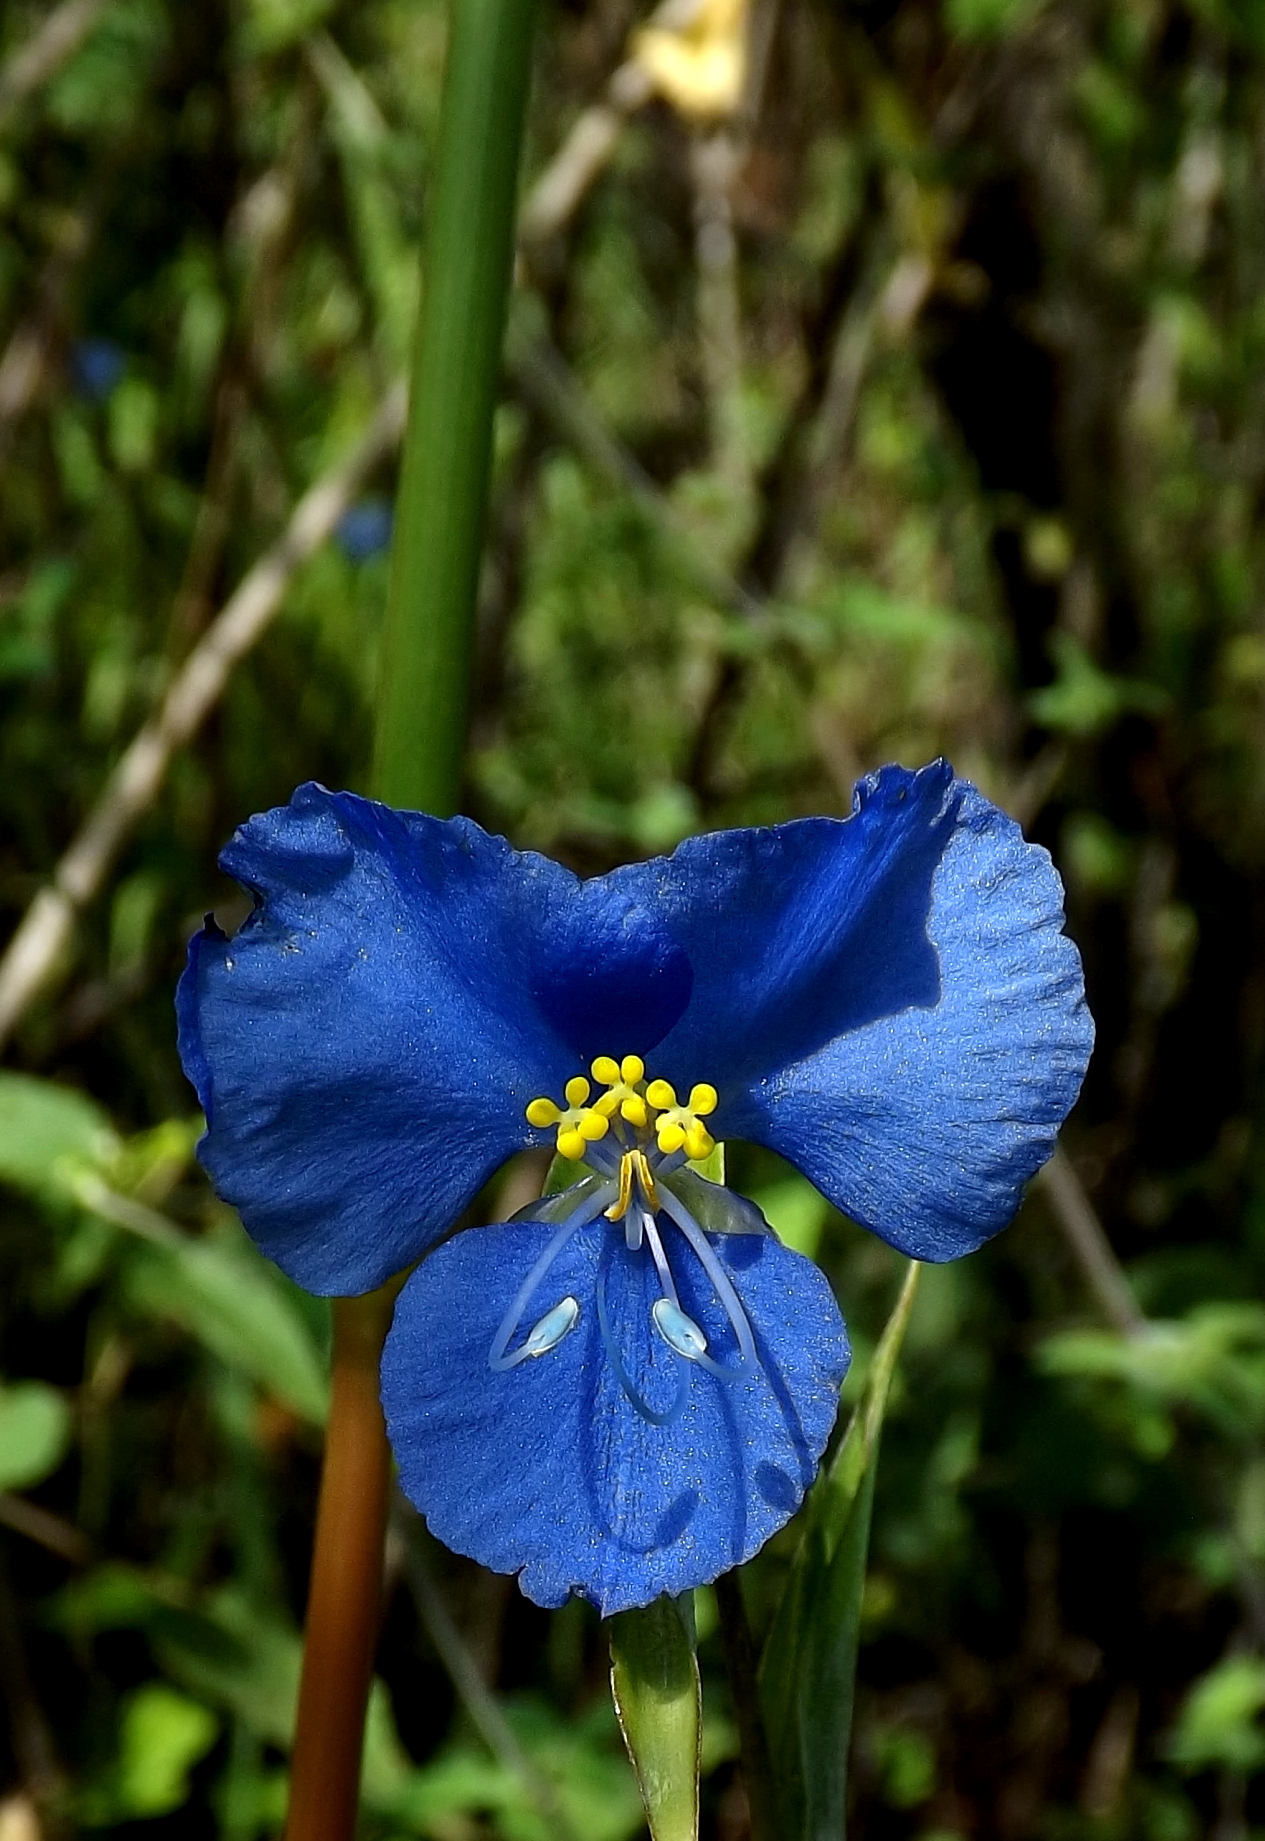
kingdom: Plantae
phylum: Tracheophyta
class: Liliopsida
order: Commelinales
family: Commelinaceae
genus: Commelina
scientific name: Commelina dianthifolia
